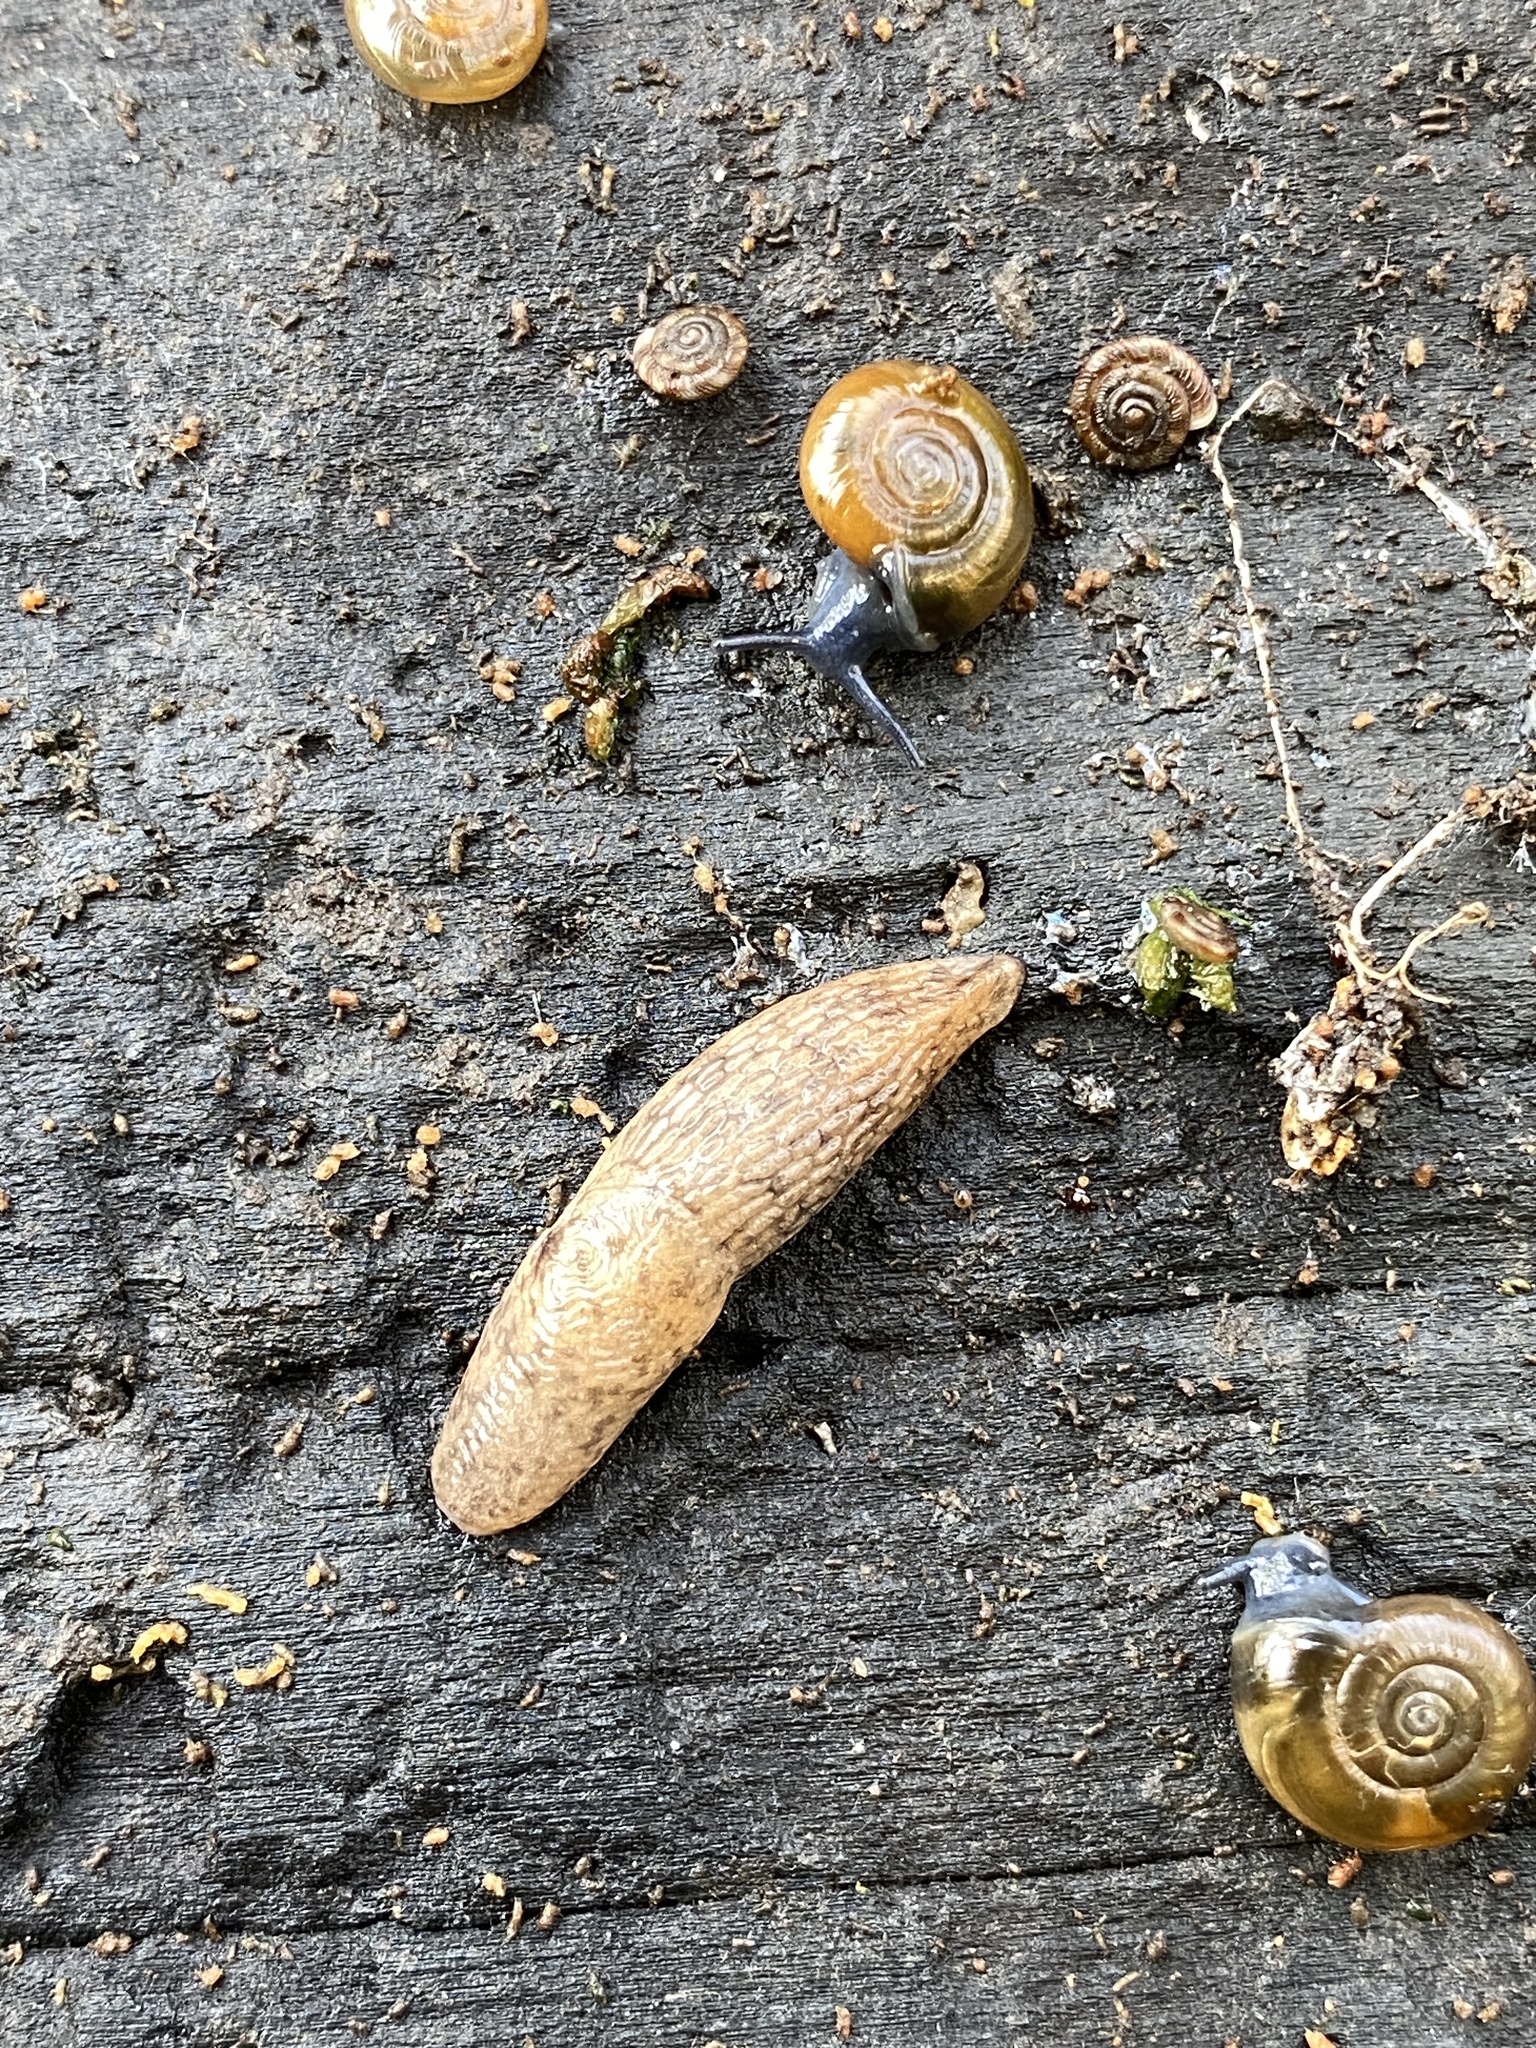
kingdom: Animalia
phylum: Mollusca
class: Gastropoda
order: Stylommatophora
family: Agriolimacidae
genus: Deroceras
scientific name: Deroceras reticulatum
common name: Gray field slug
